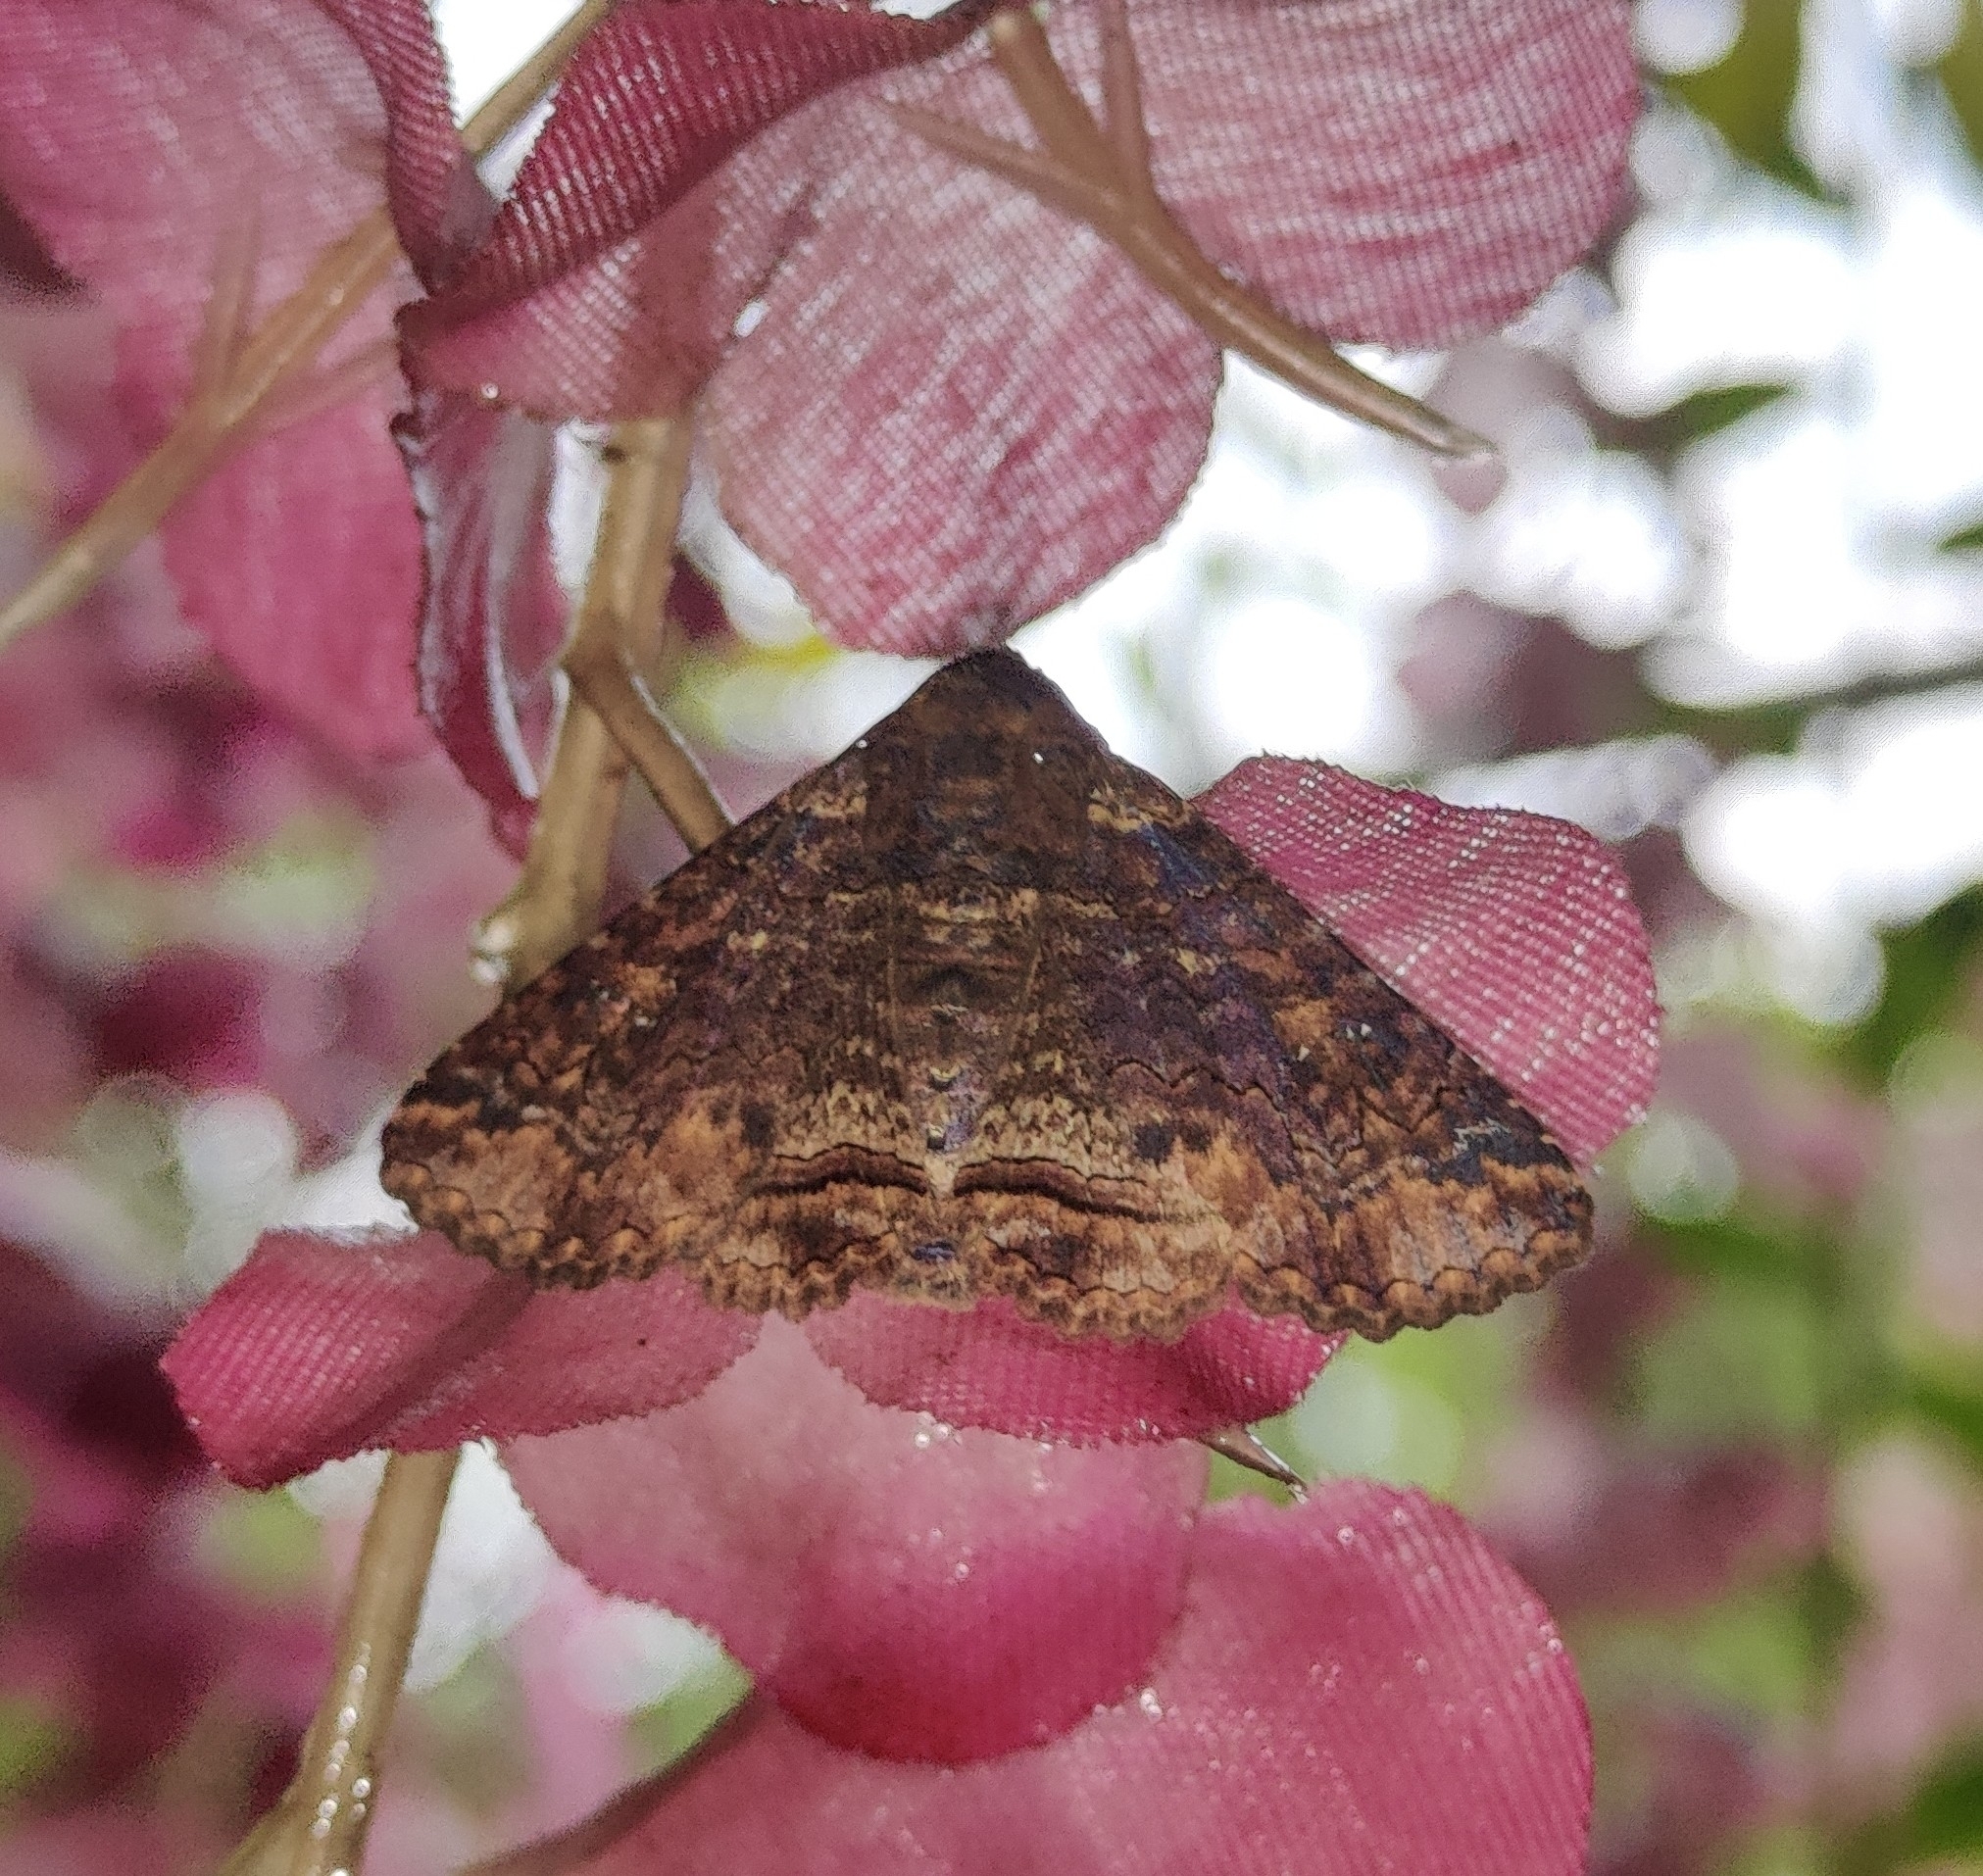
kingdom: Animalia
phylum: Arthropoda
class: Insecta
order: Lepidoptera
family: Erebidae
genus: Pericyma
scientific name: Pericyma cruegeri
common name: Poinciana looper
